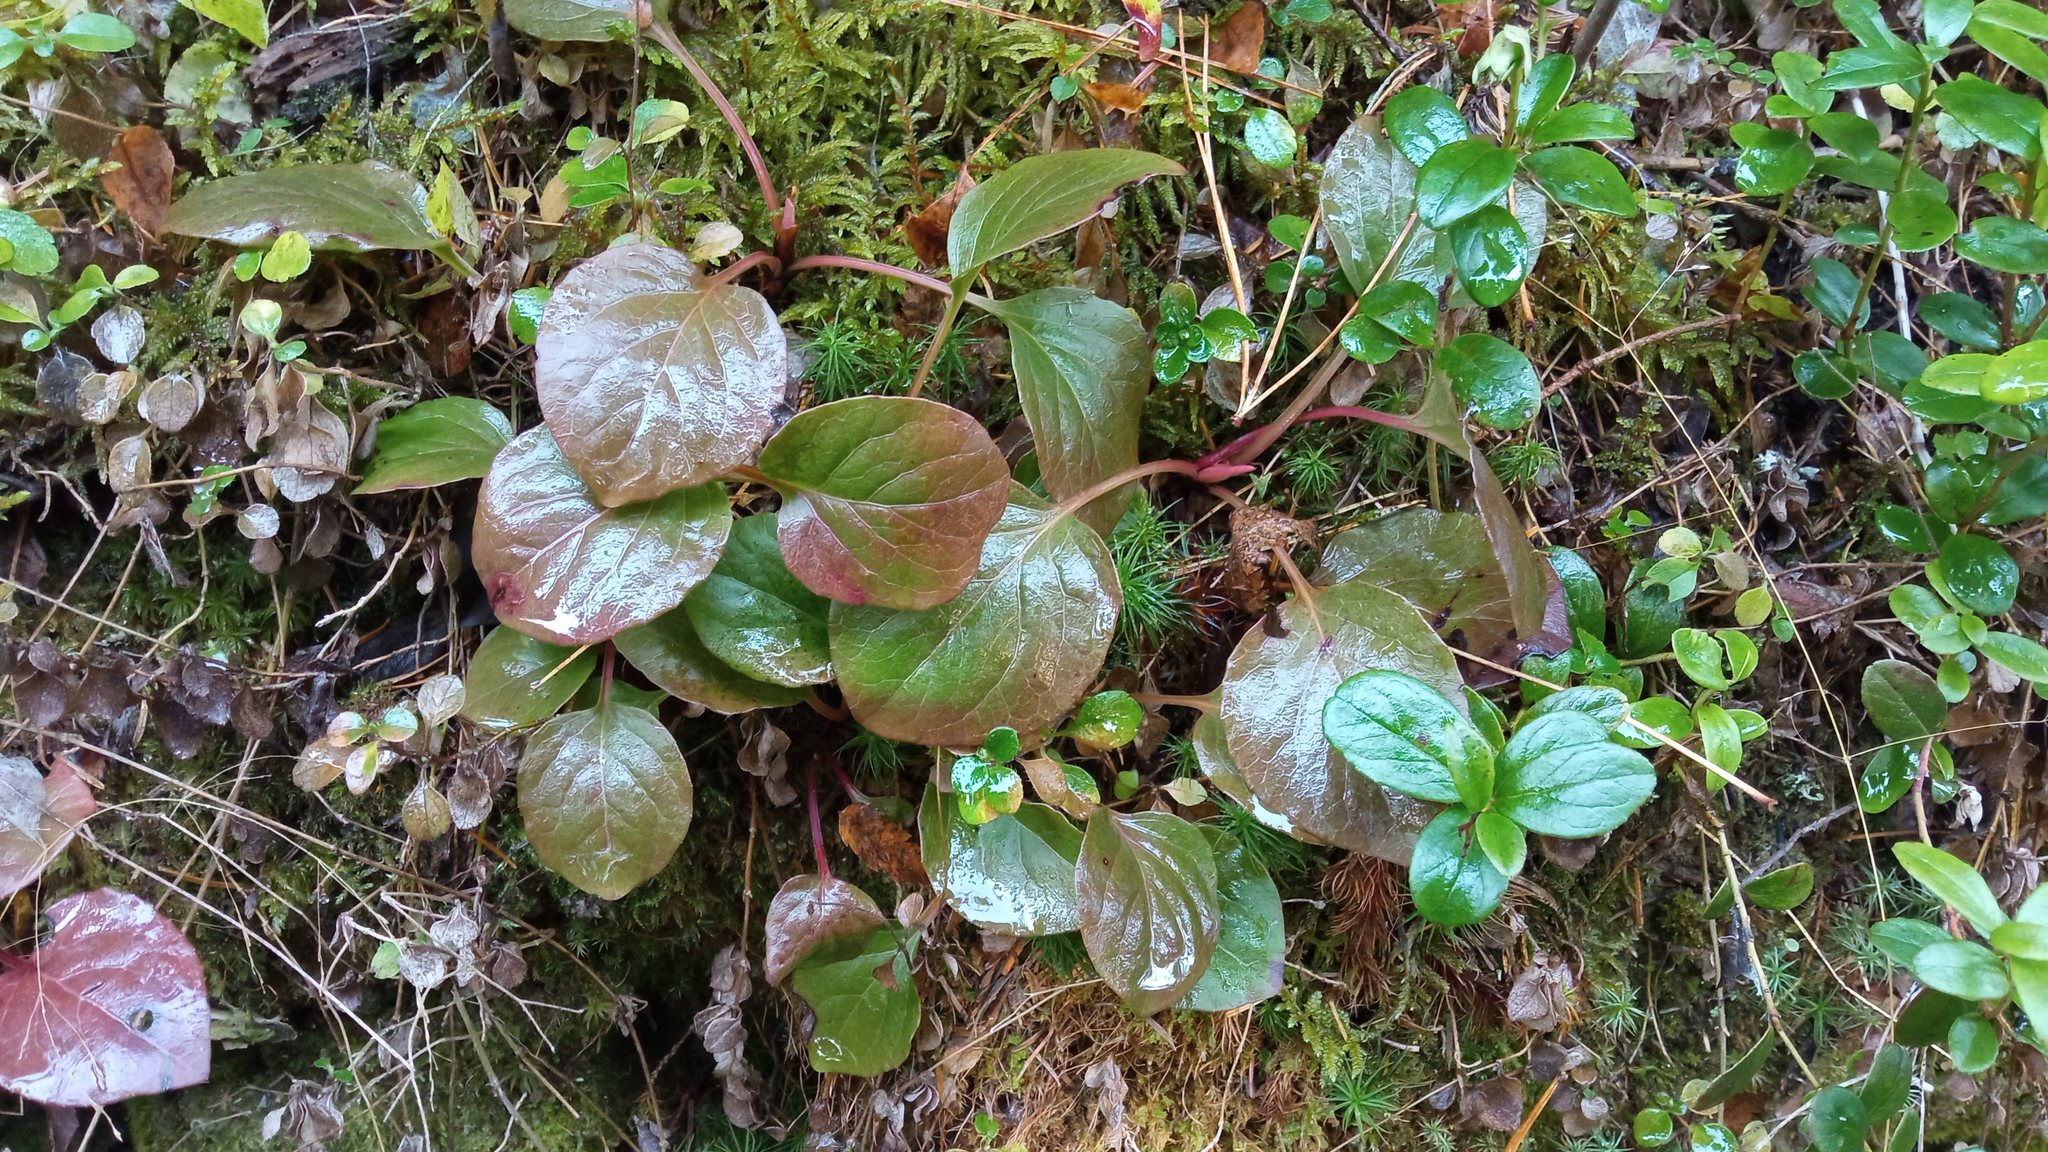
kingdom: Plantae
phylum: Tracheophyta
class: Magnoliopsida
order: Ericales
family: Ericaceae
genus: Pyrola
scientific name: Pyrola asarifolia
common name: Bog wintergreen
